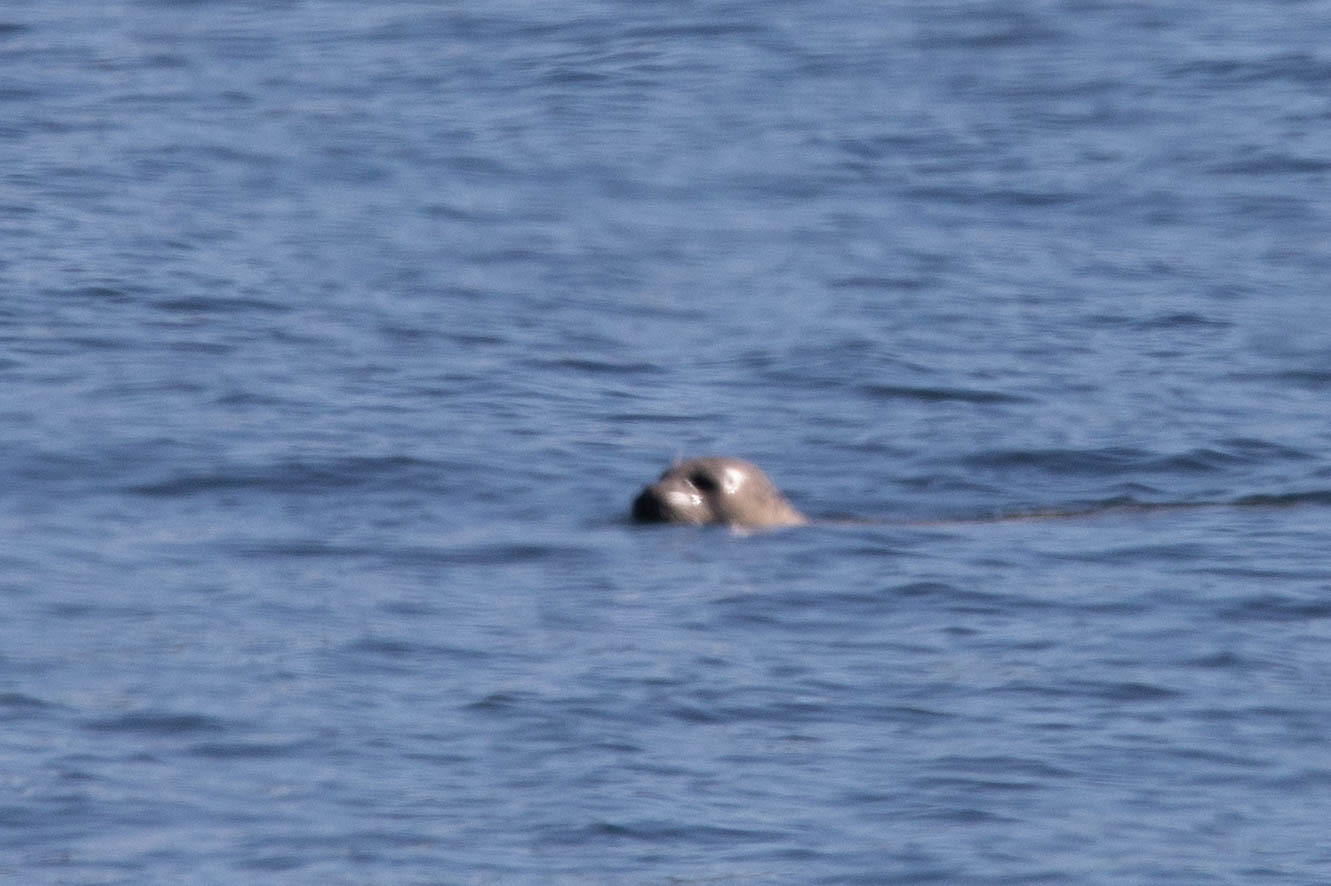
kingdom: Animalia
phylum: Chordata
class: Mammalia
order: Carnivora
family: Phocidae
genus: Phoca
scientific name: Phoca vitulina
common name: Harbor seal
